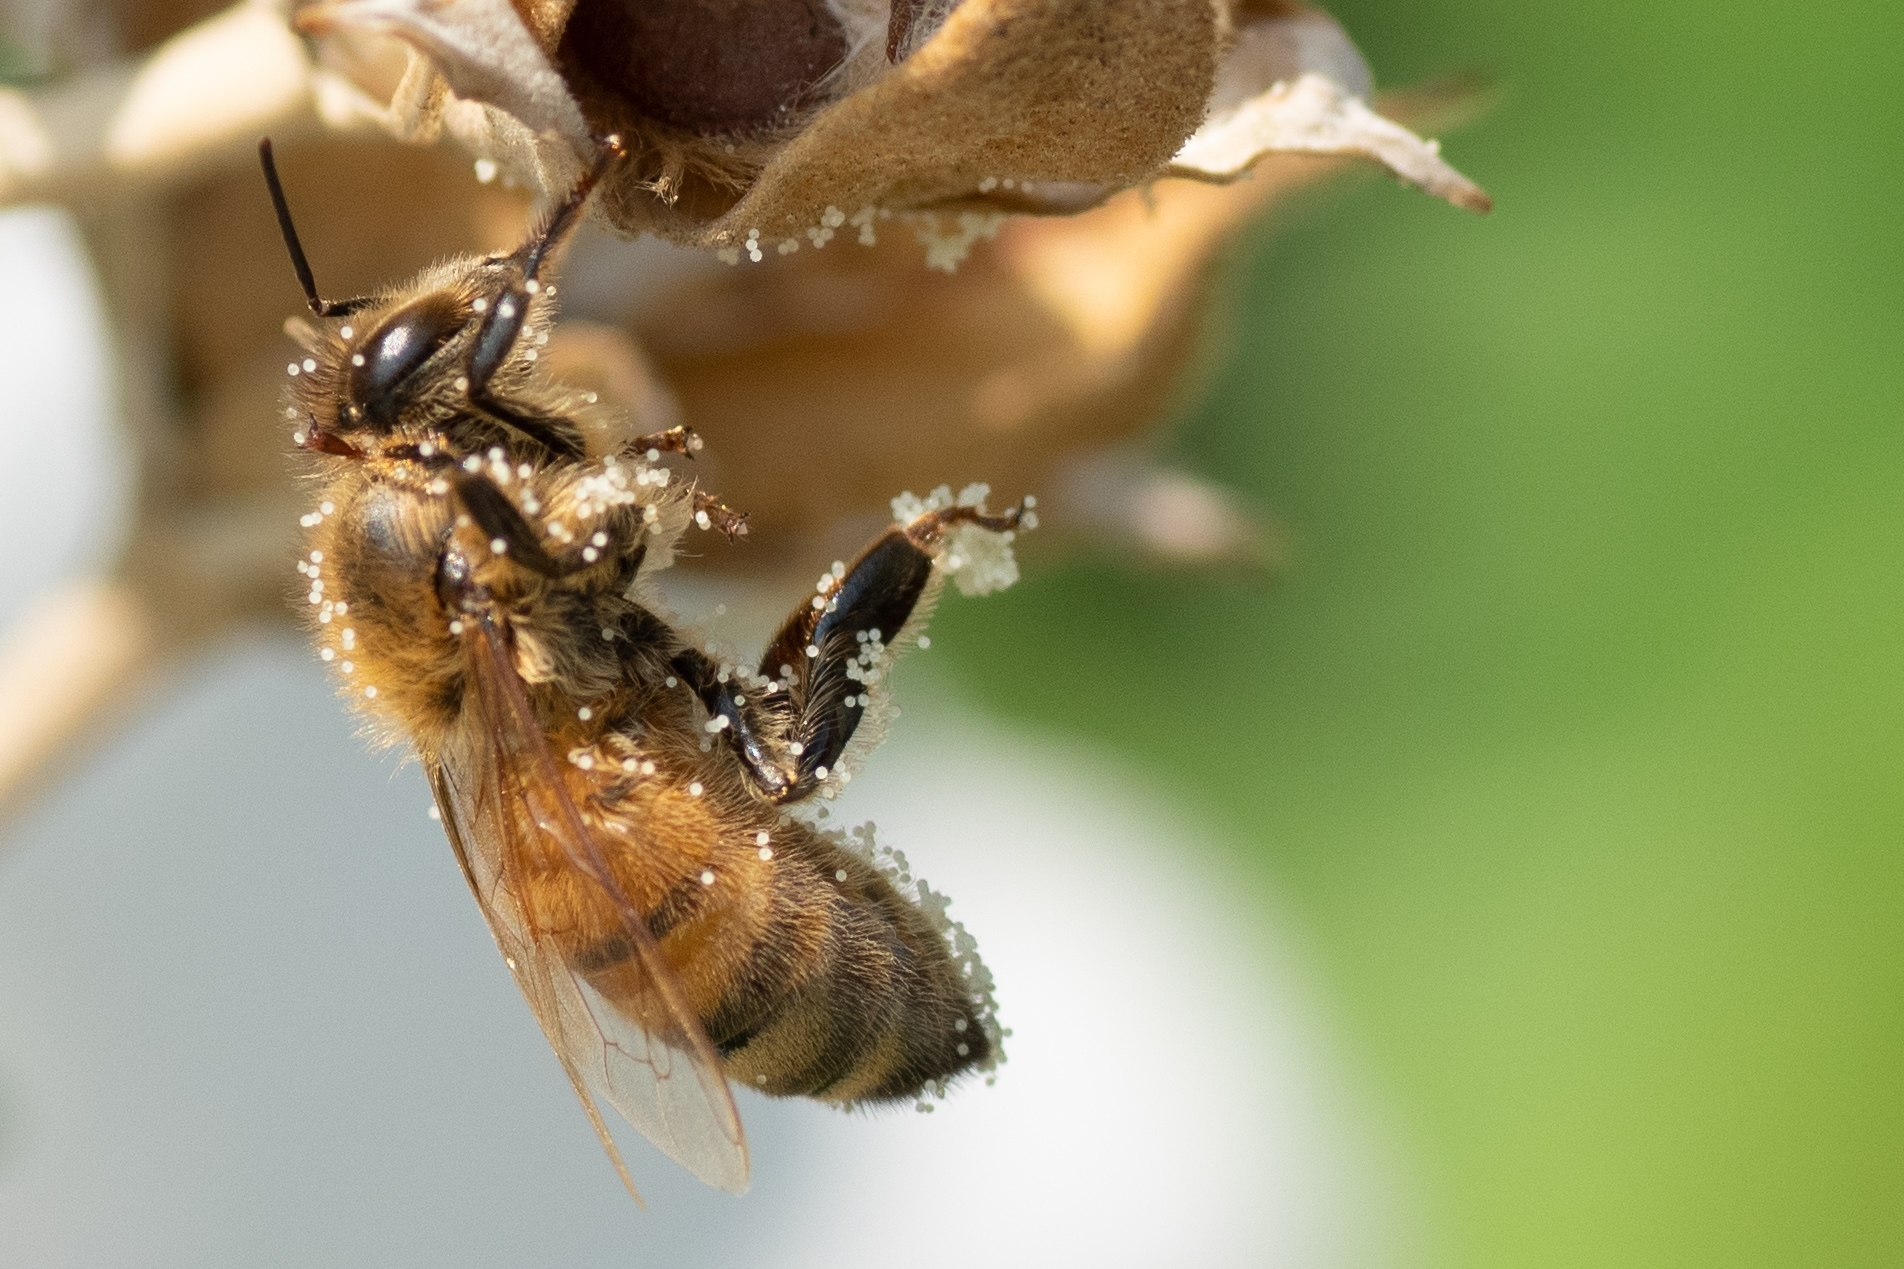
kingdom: Animalia
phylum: Arthropoda
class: Insecta
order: Hymenoptera
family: Apidae
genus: Apis
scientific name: Apis mellifera
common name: Honey bee
